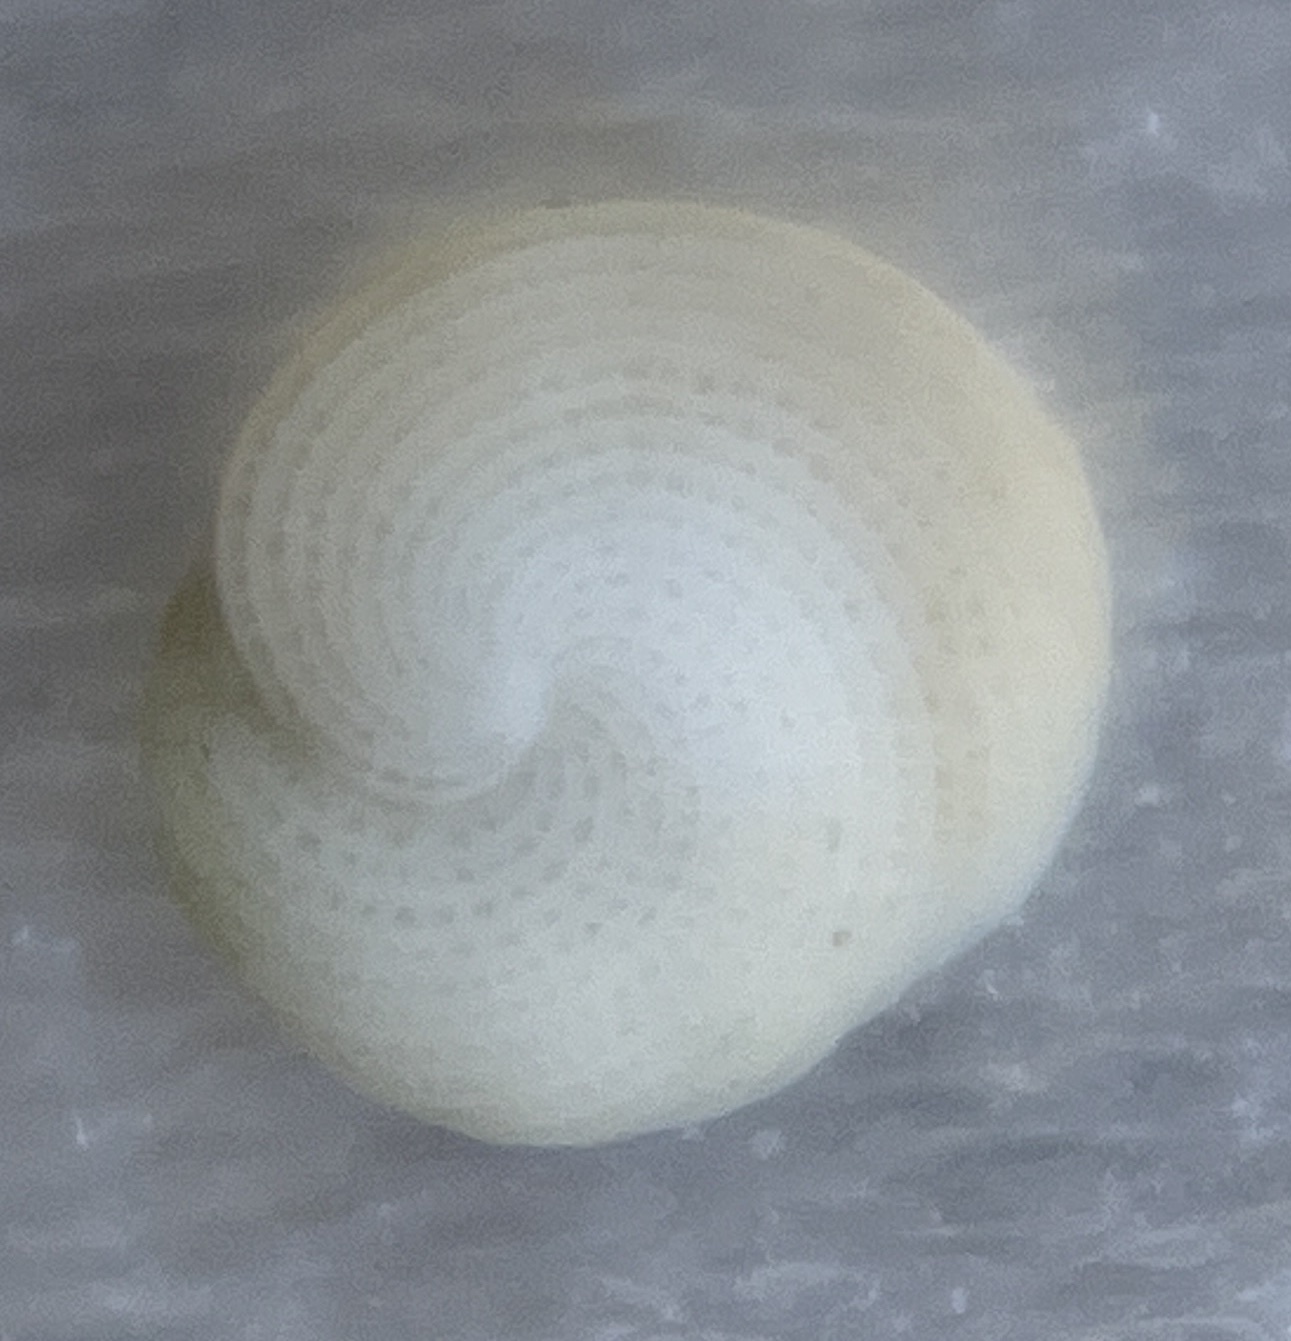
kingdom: Chromista
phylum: Foraminifera
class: Tubothalamea
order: Miliolida
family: Soritidae
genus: Archaias
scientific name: Archaias angulatus
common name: Turtle grass foram
